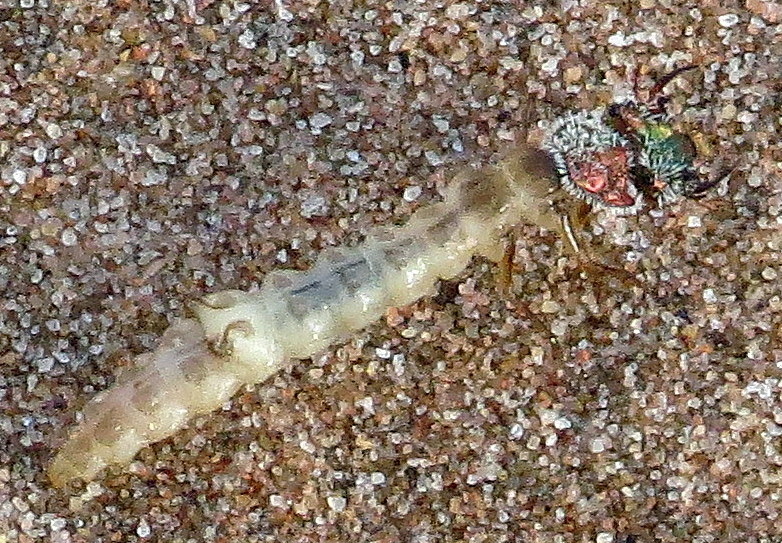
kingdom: Animalia
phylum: Arthropoda
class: Insecta
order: Coleoptera
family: Carabidae
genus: Cicindela
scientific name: Cicindela hirticollis
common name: Hairy-necked tiger beetle
